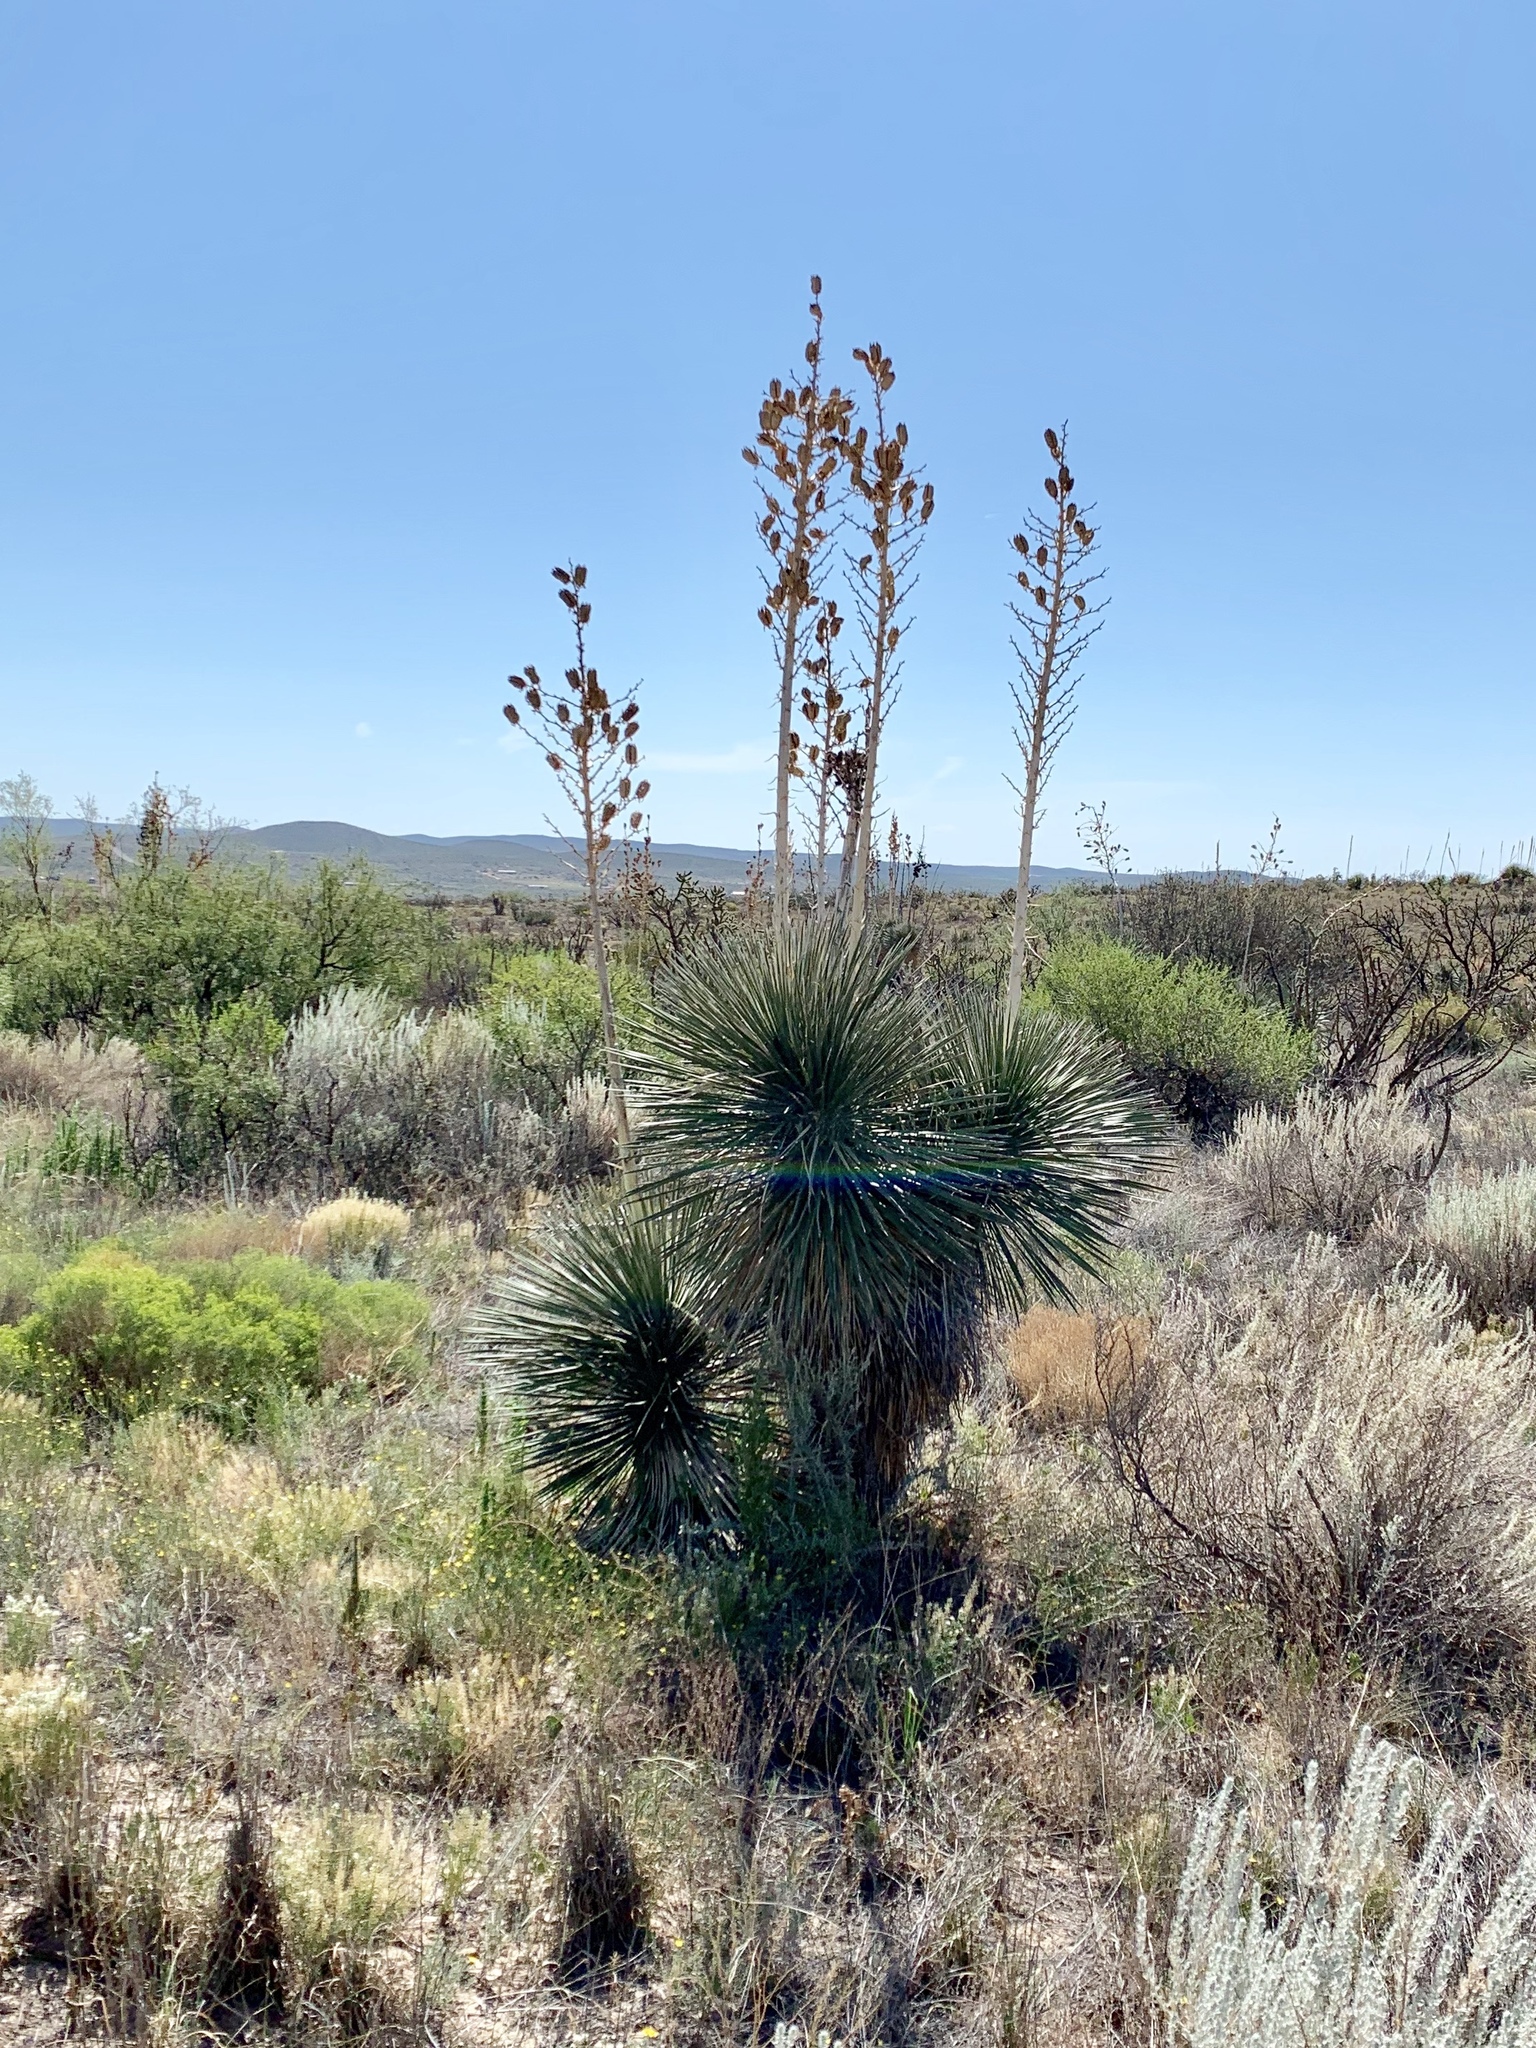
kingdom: Plantae
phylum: Tracheophyta
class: Liliopsida
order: Asparagales
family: Asparagaceae
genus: Yucca
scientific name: Yucca elata
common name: Palmella
